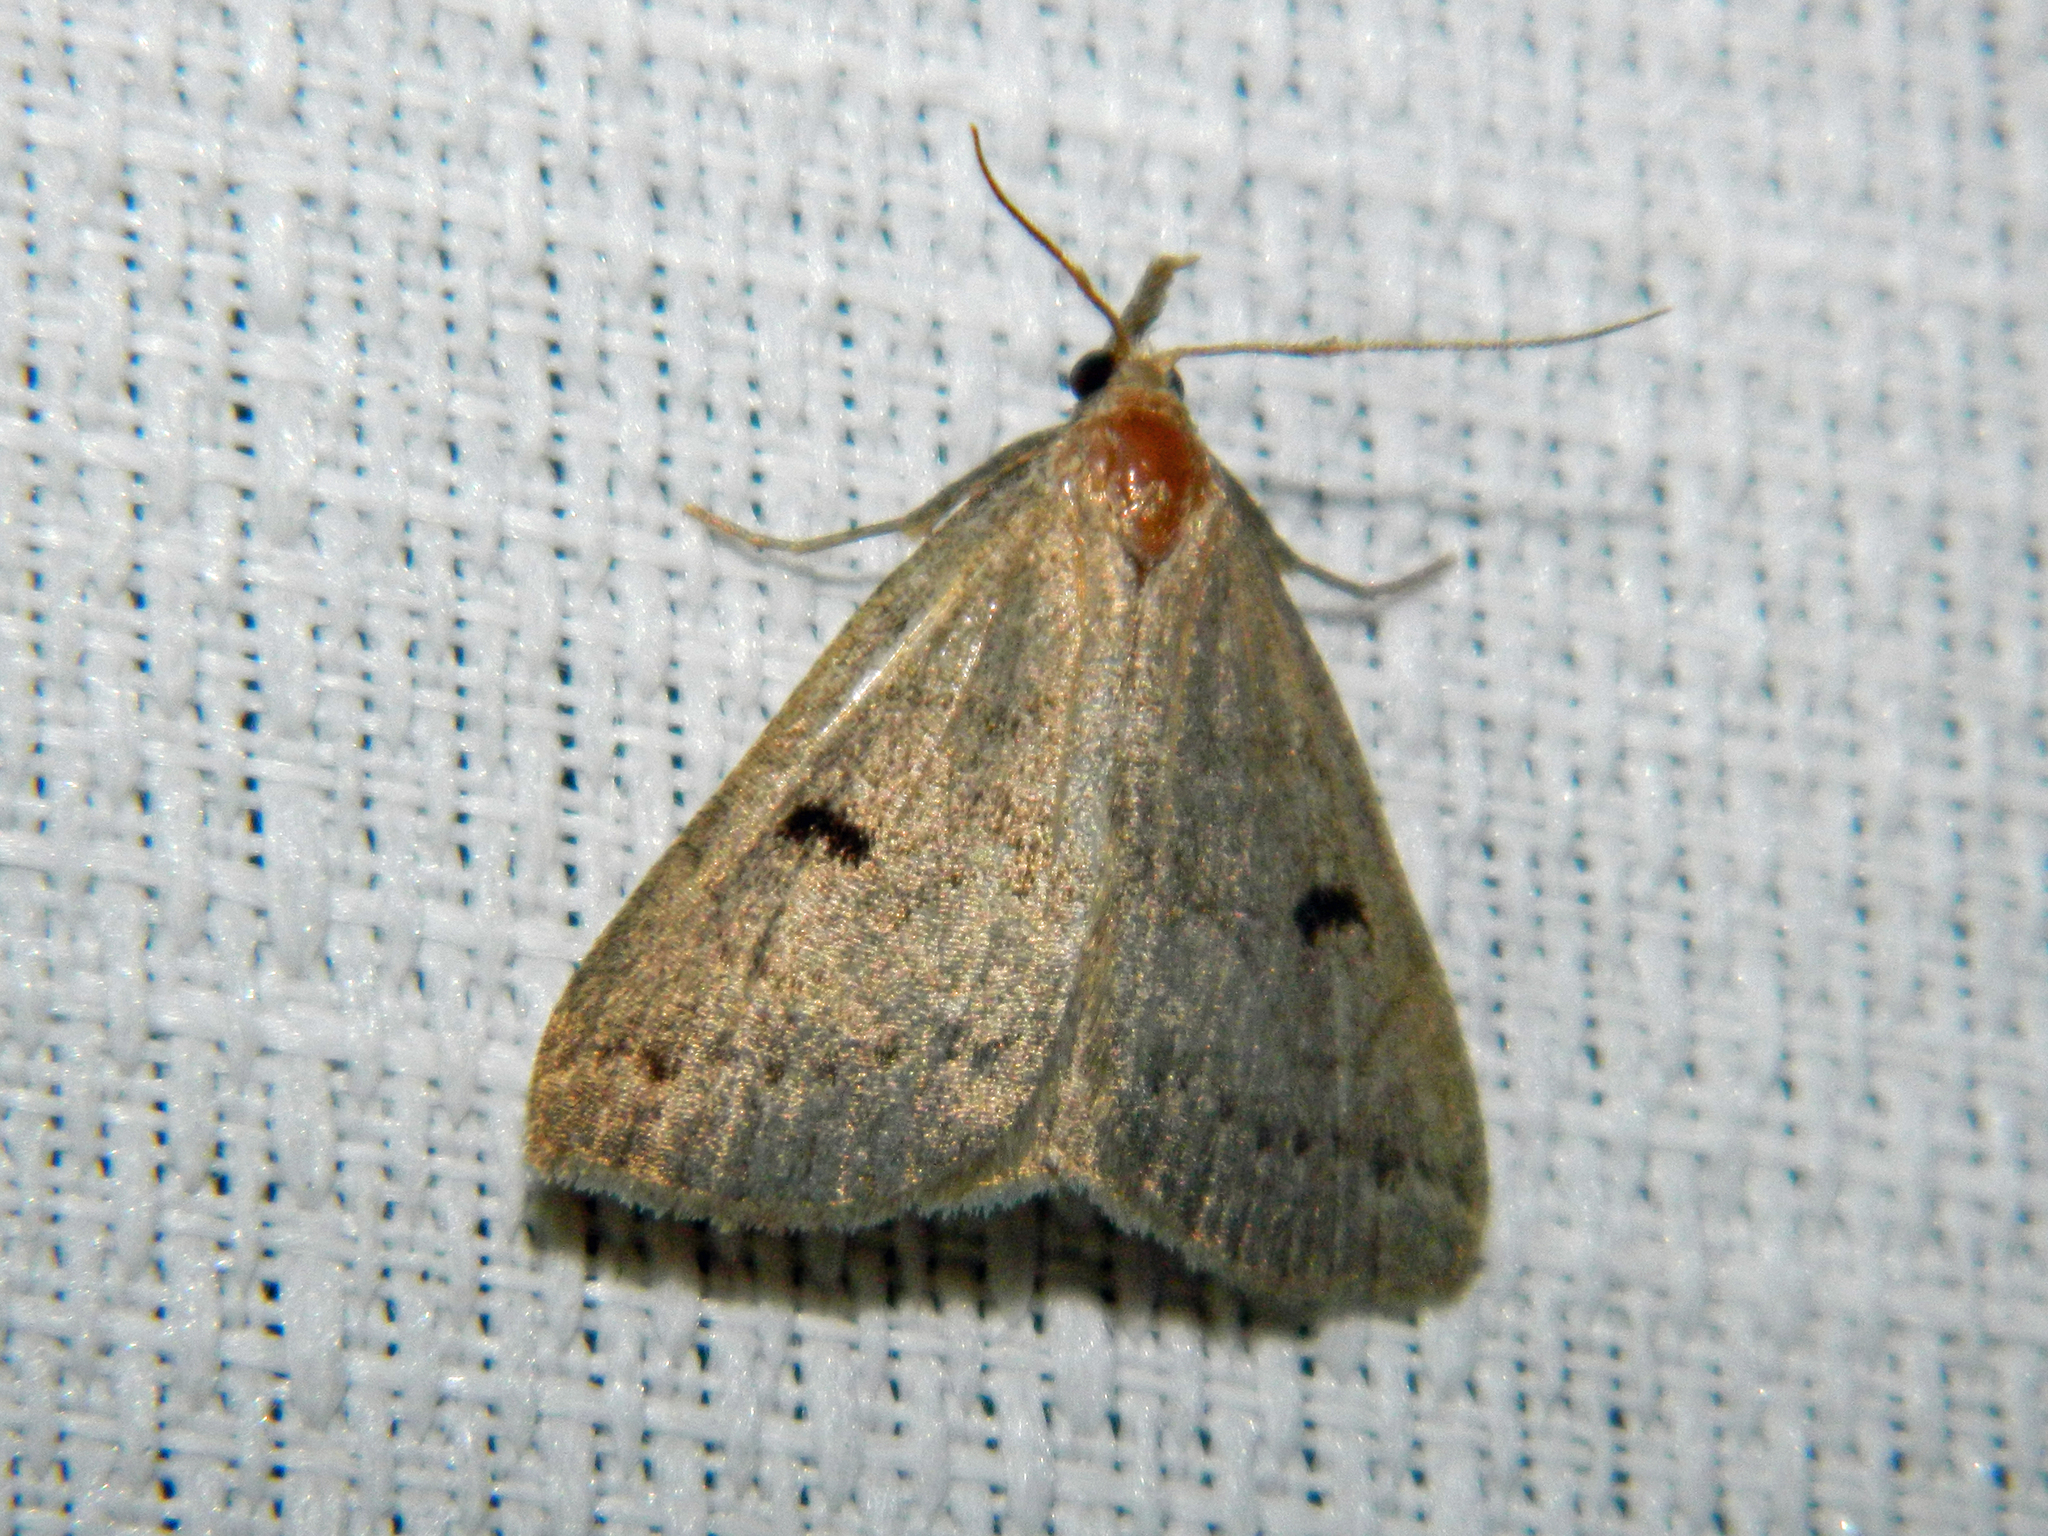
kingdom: Animalia
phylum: Arthropoda
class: Insecta
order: Lepidoptera
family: Erebidae
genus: Macrochilo
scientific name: Macrochilo morbidalis
